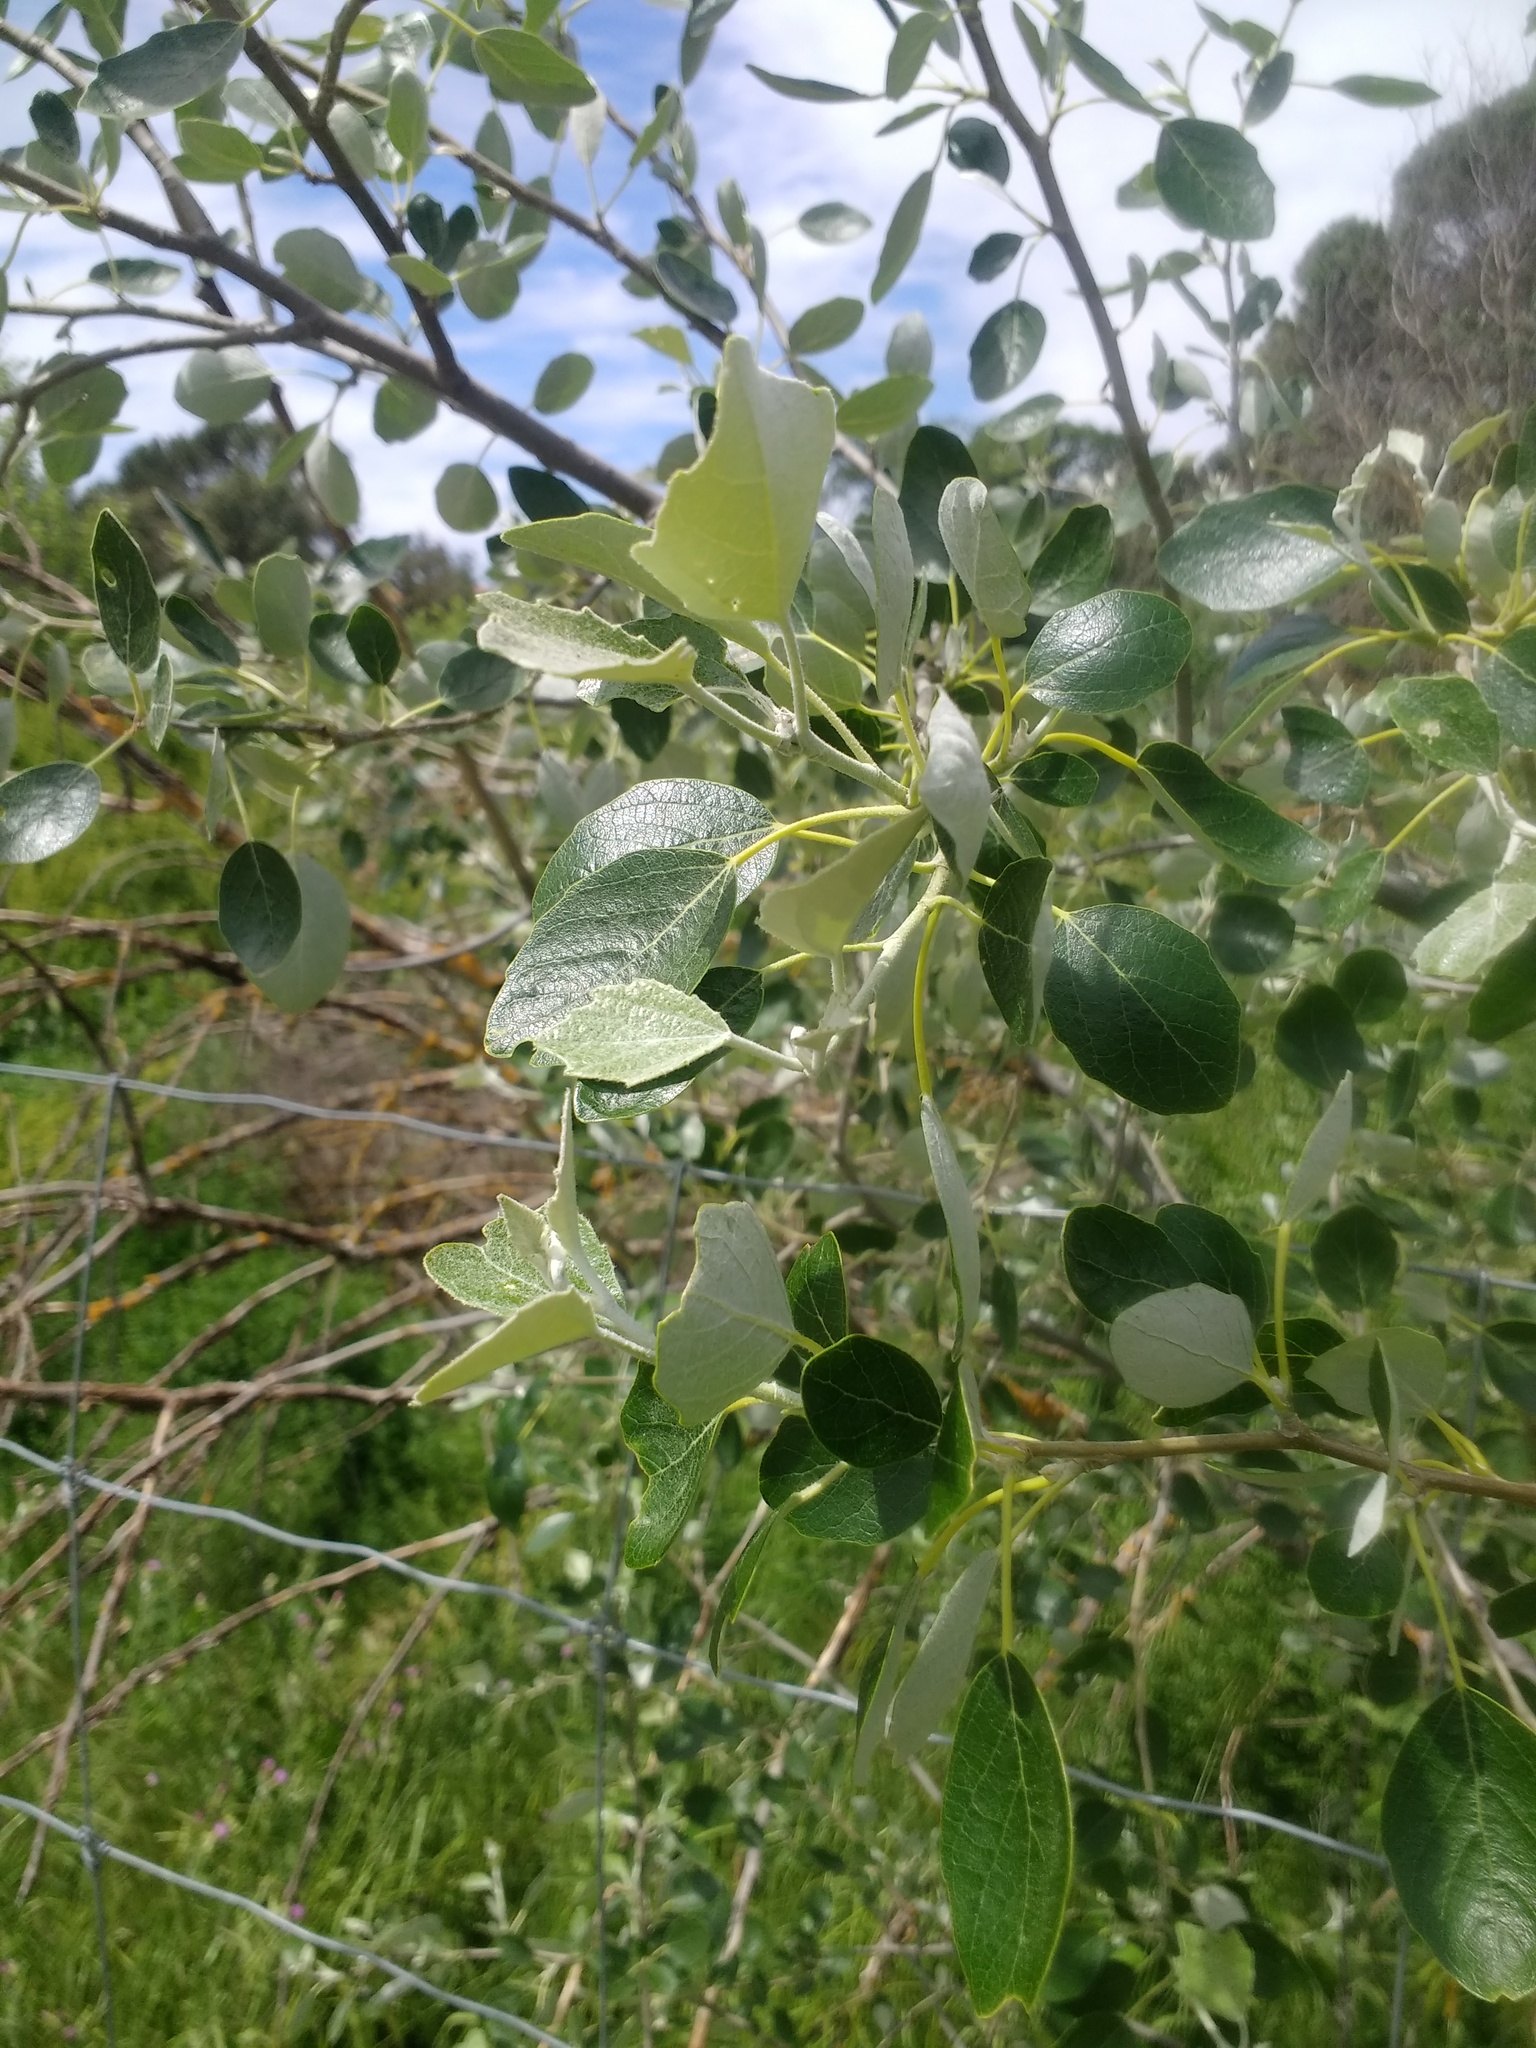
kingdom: Plantae
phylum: Tracheophyta
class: Magnoliopsida
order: Malpighiales
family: Salicaceae
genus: Populus
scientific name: Populus alba
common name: White poplar
